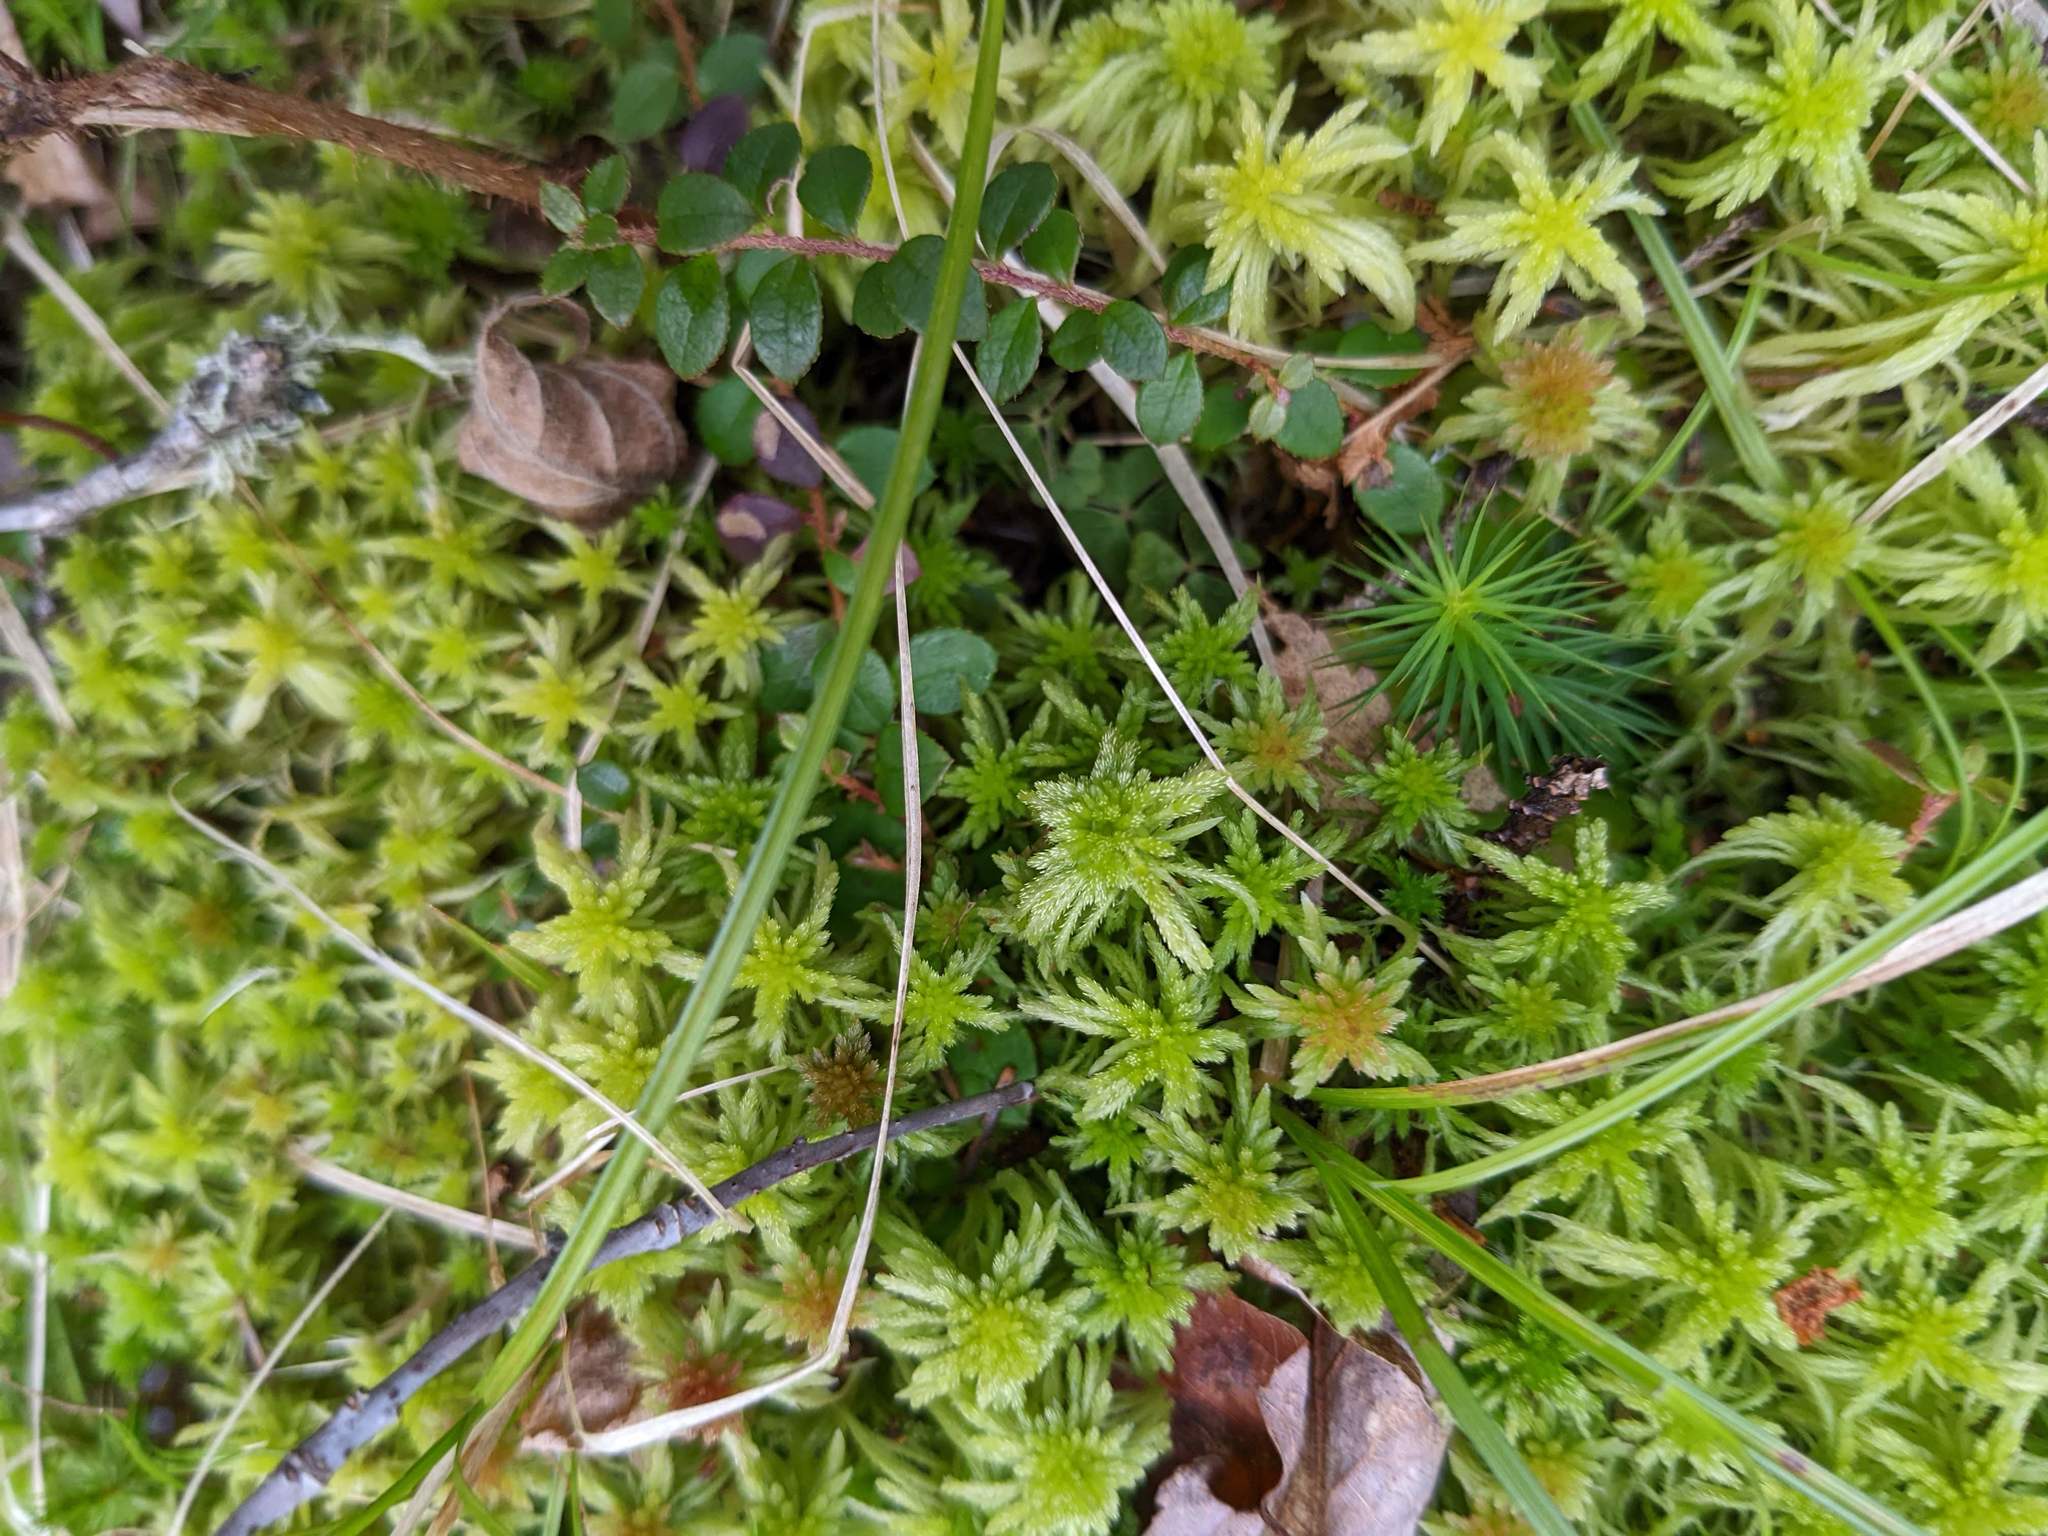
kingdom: Plantae
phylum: Tracheophyta
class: Magnoliopsida
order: Ericales
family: Ericaceae
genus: Gaultheria
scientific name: Gaultheria hispidula
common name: Cancer wintergreen
